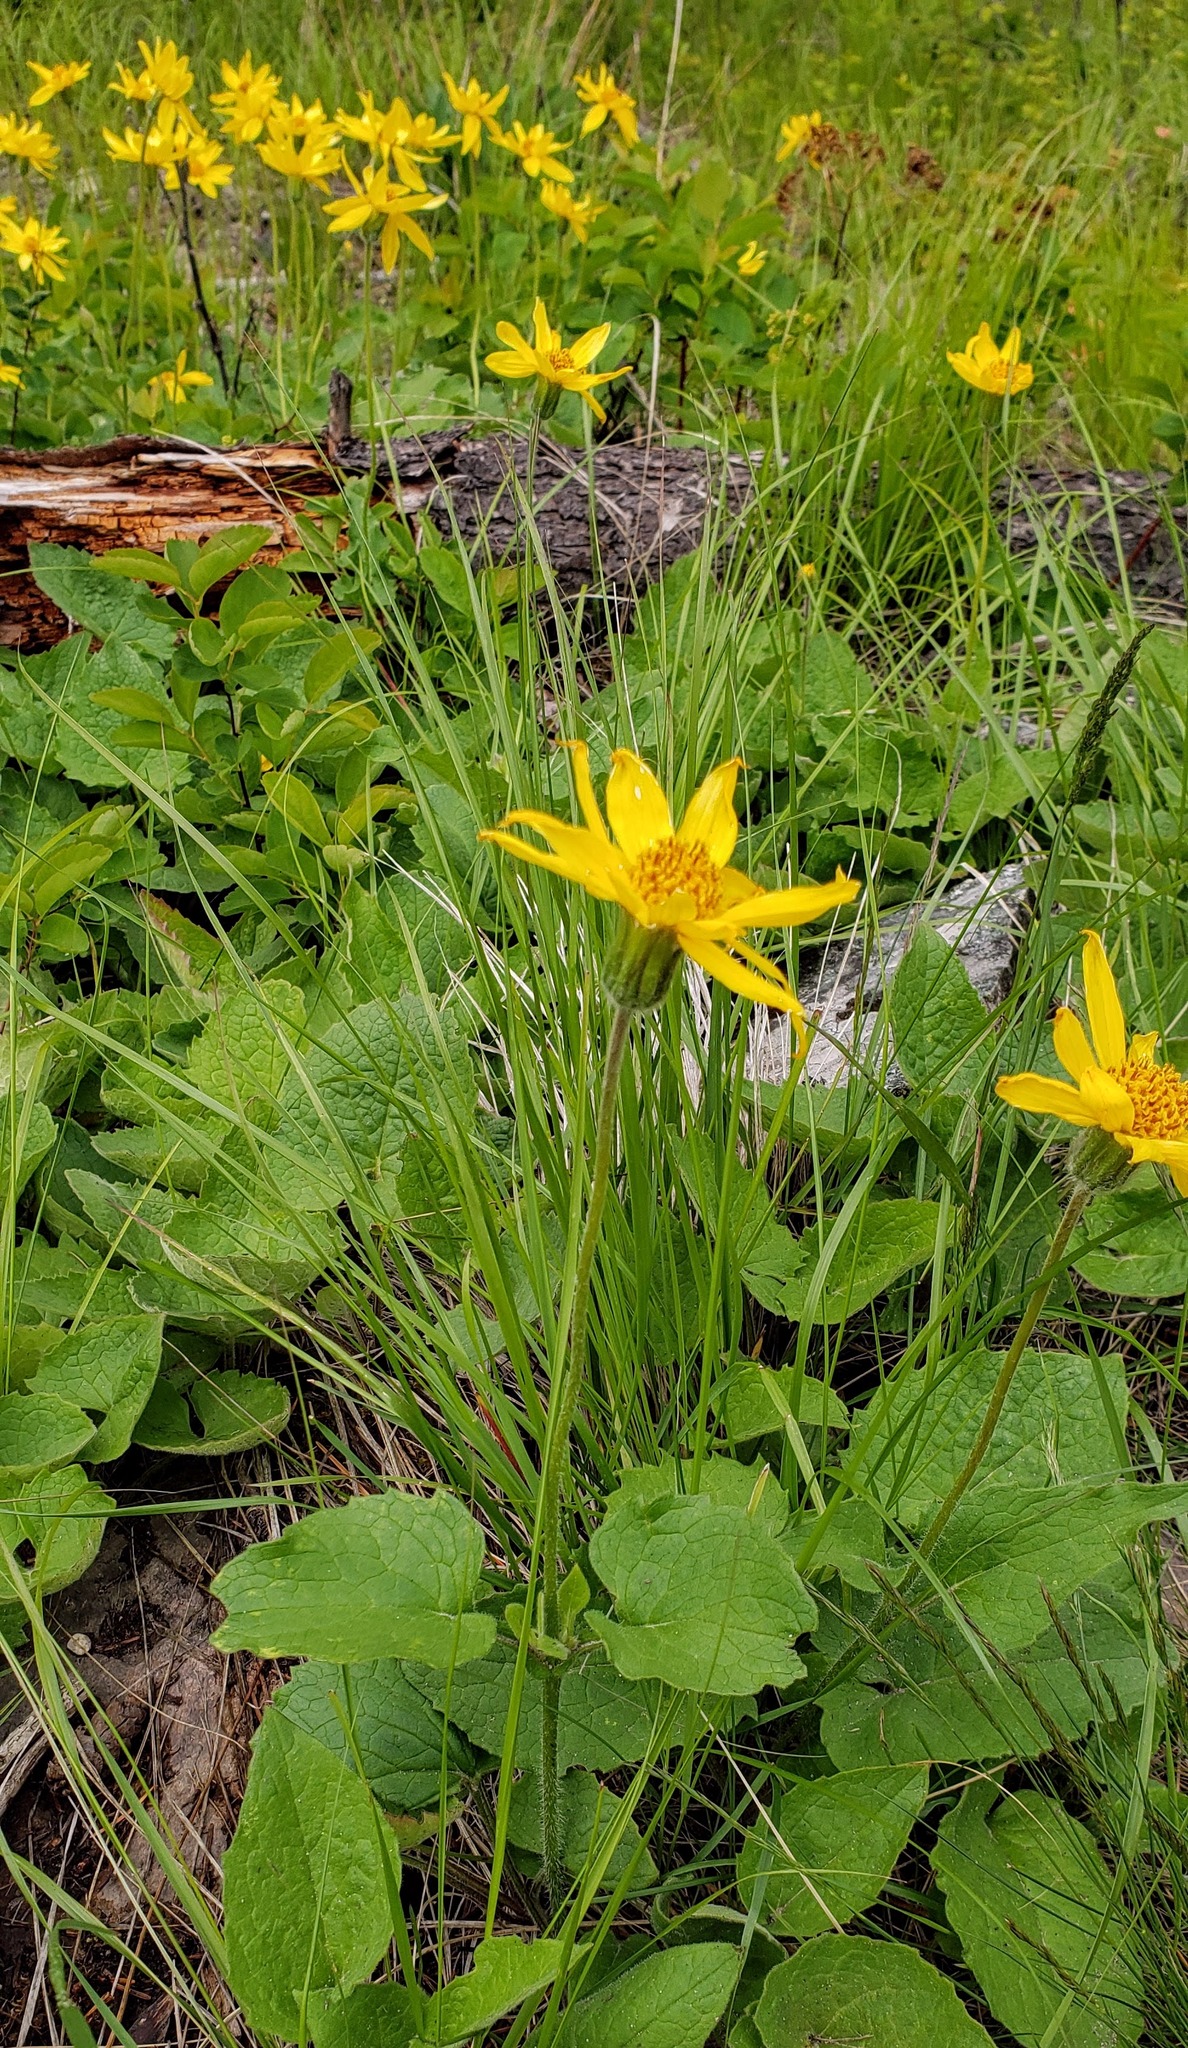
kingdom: Plantae
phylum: Tracheophyta
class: Magnoliopsida
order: Asterales
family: Asteraceae
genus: Arnica
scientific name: Arnica cordifolia
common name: Heart-leaf arnica
